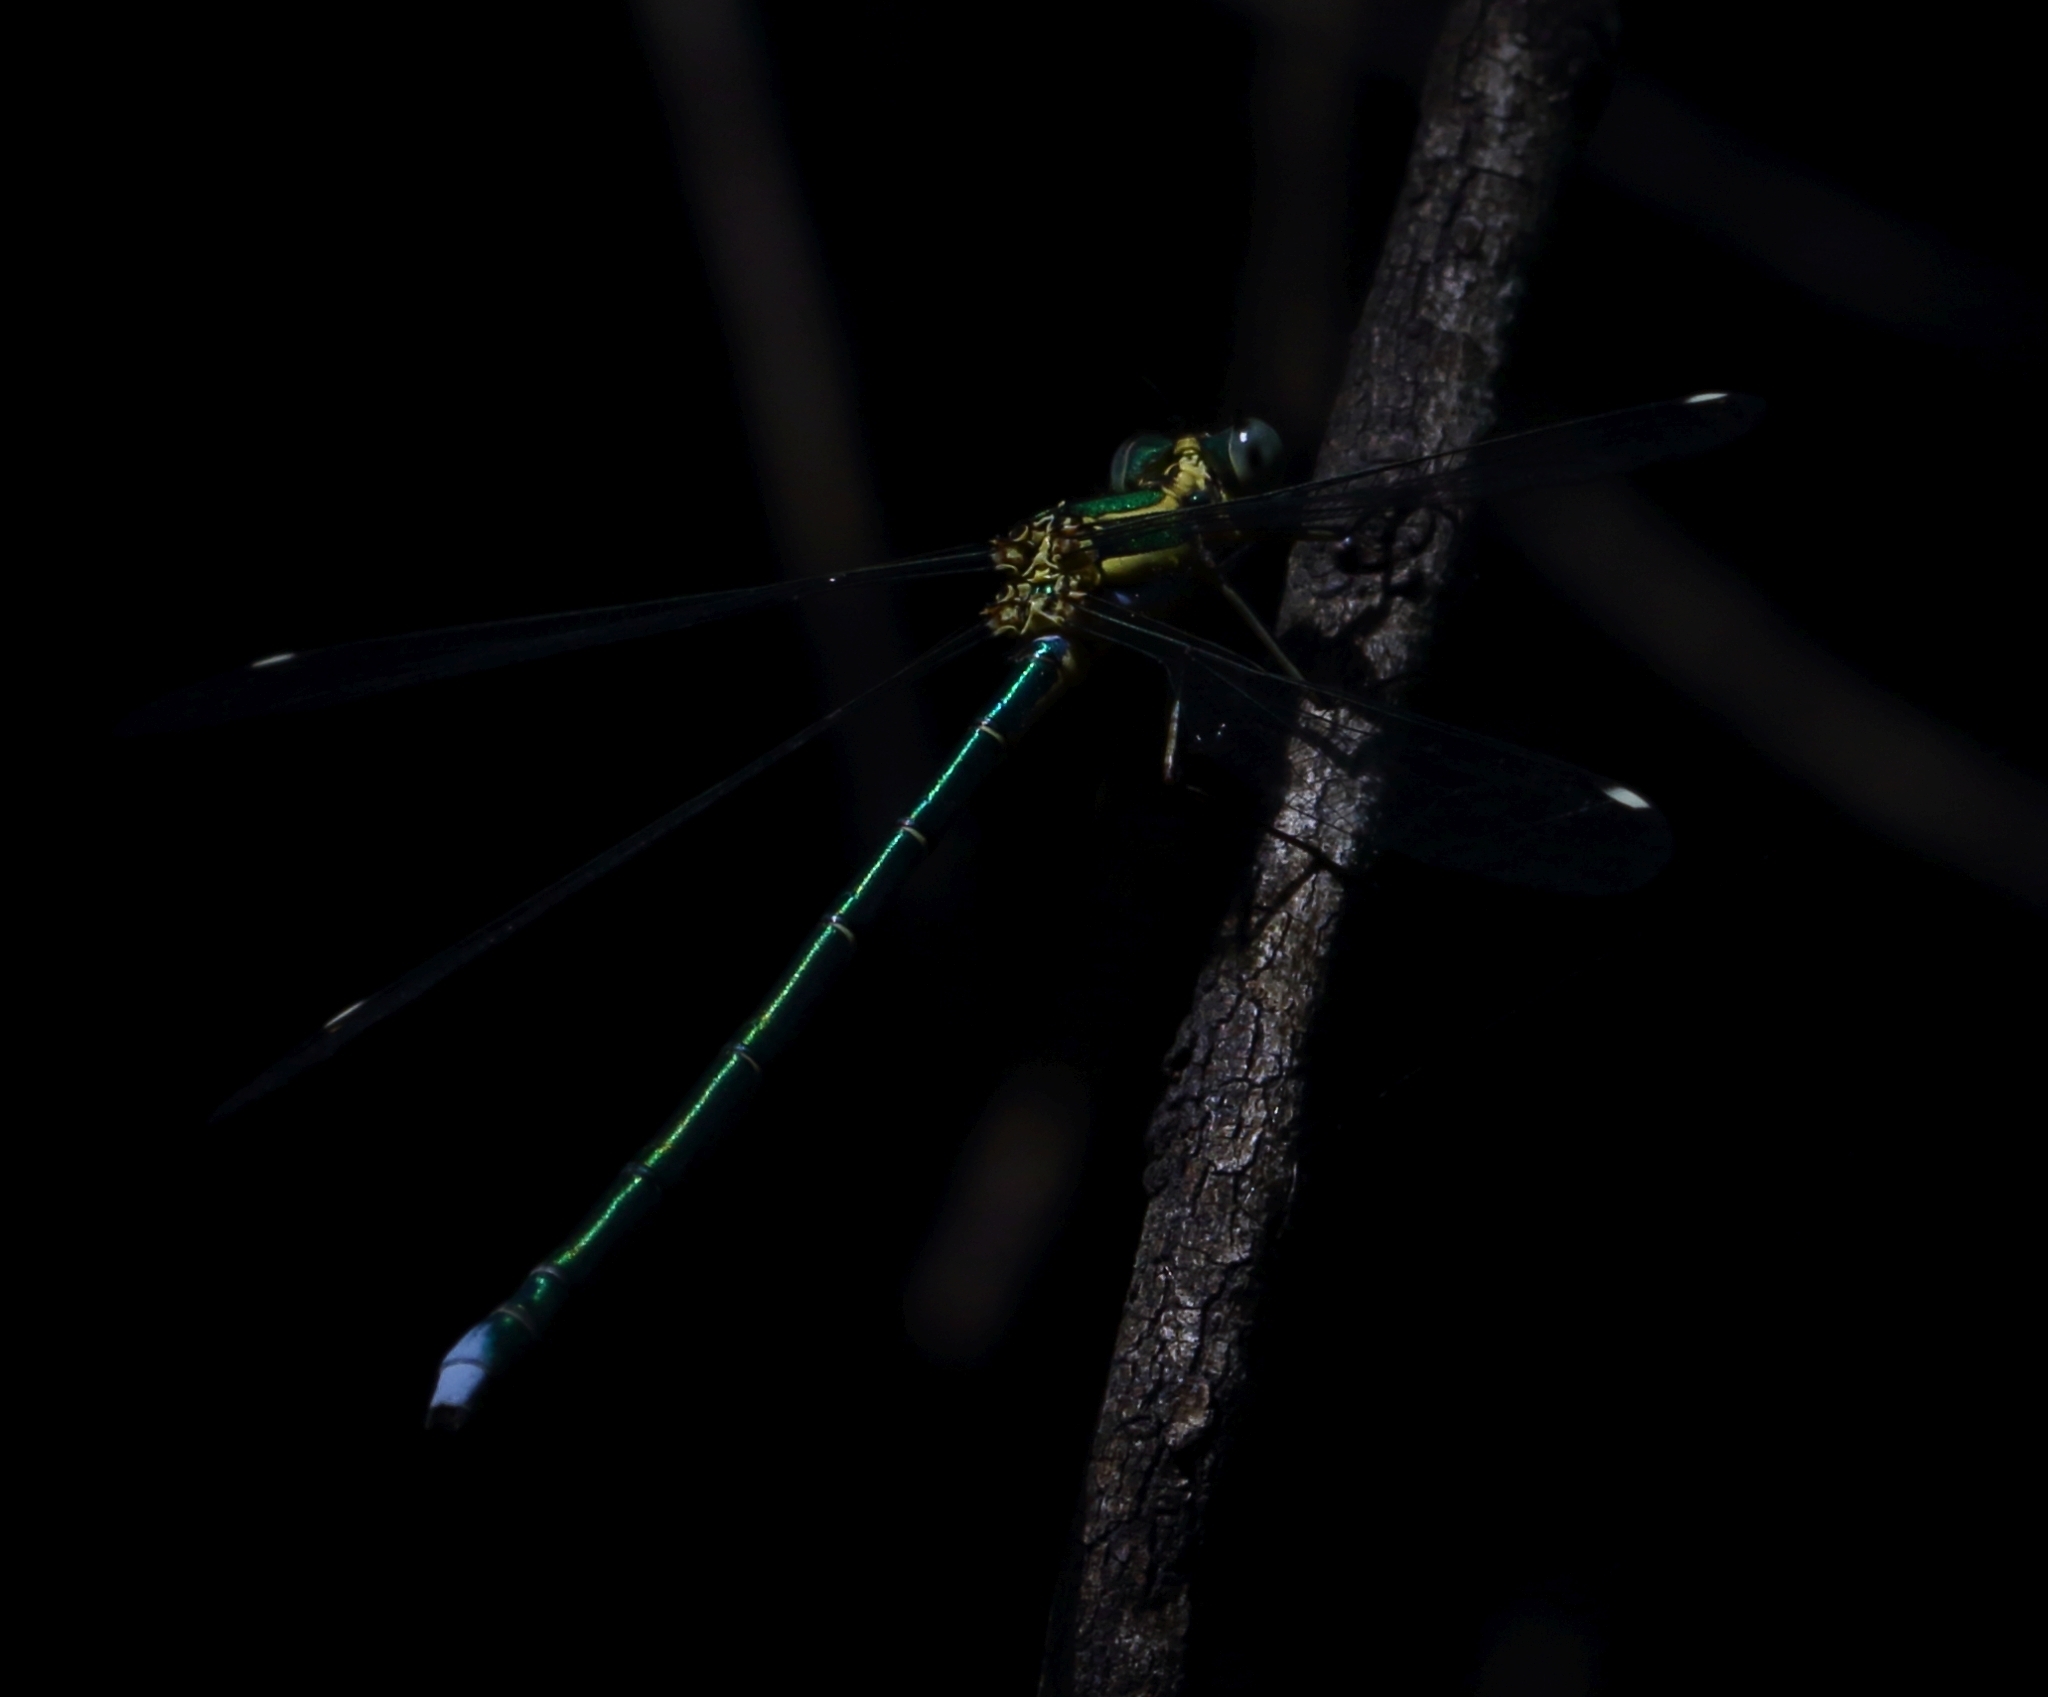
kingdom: Animalia
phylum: Arthropoda
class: Insecta
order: Odonata
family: Synlestidae
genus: Chlorolestes
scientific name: Chlorolestes fasciatus
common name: Mountain malachite
